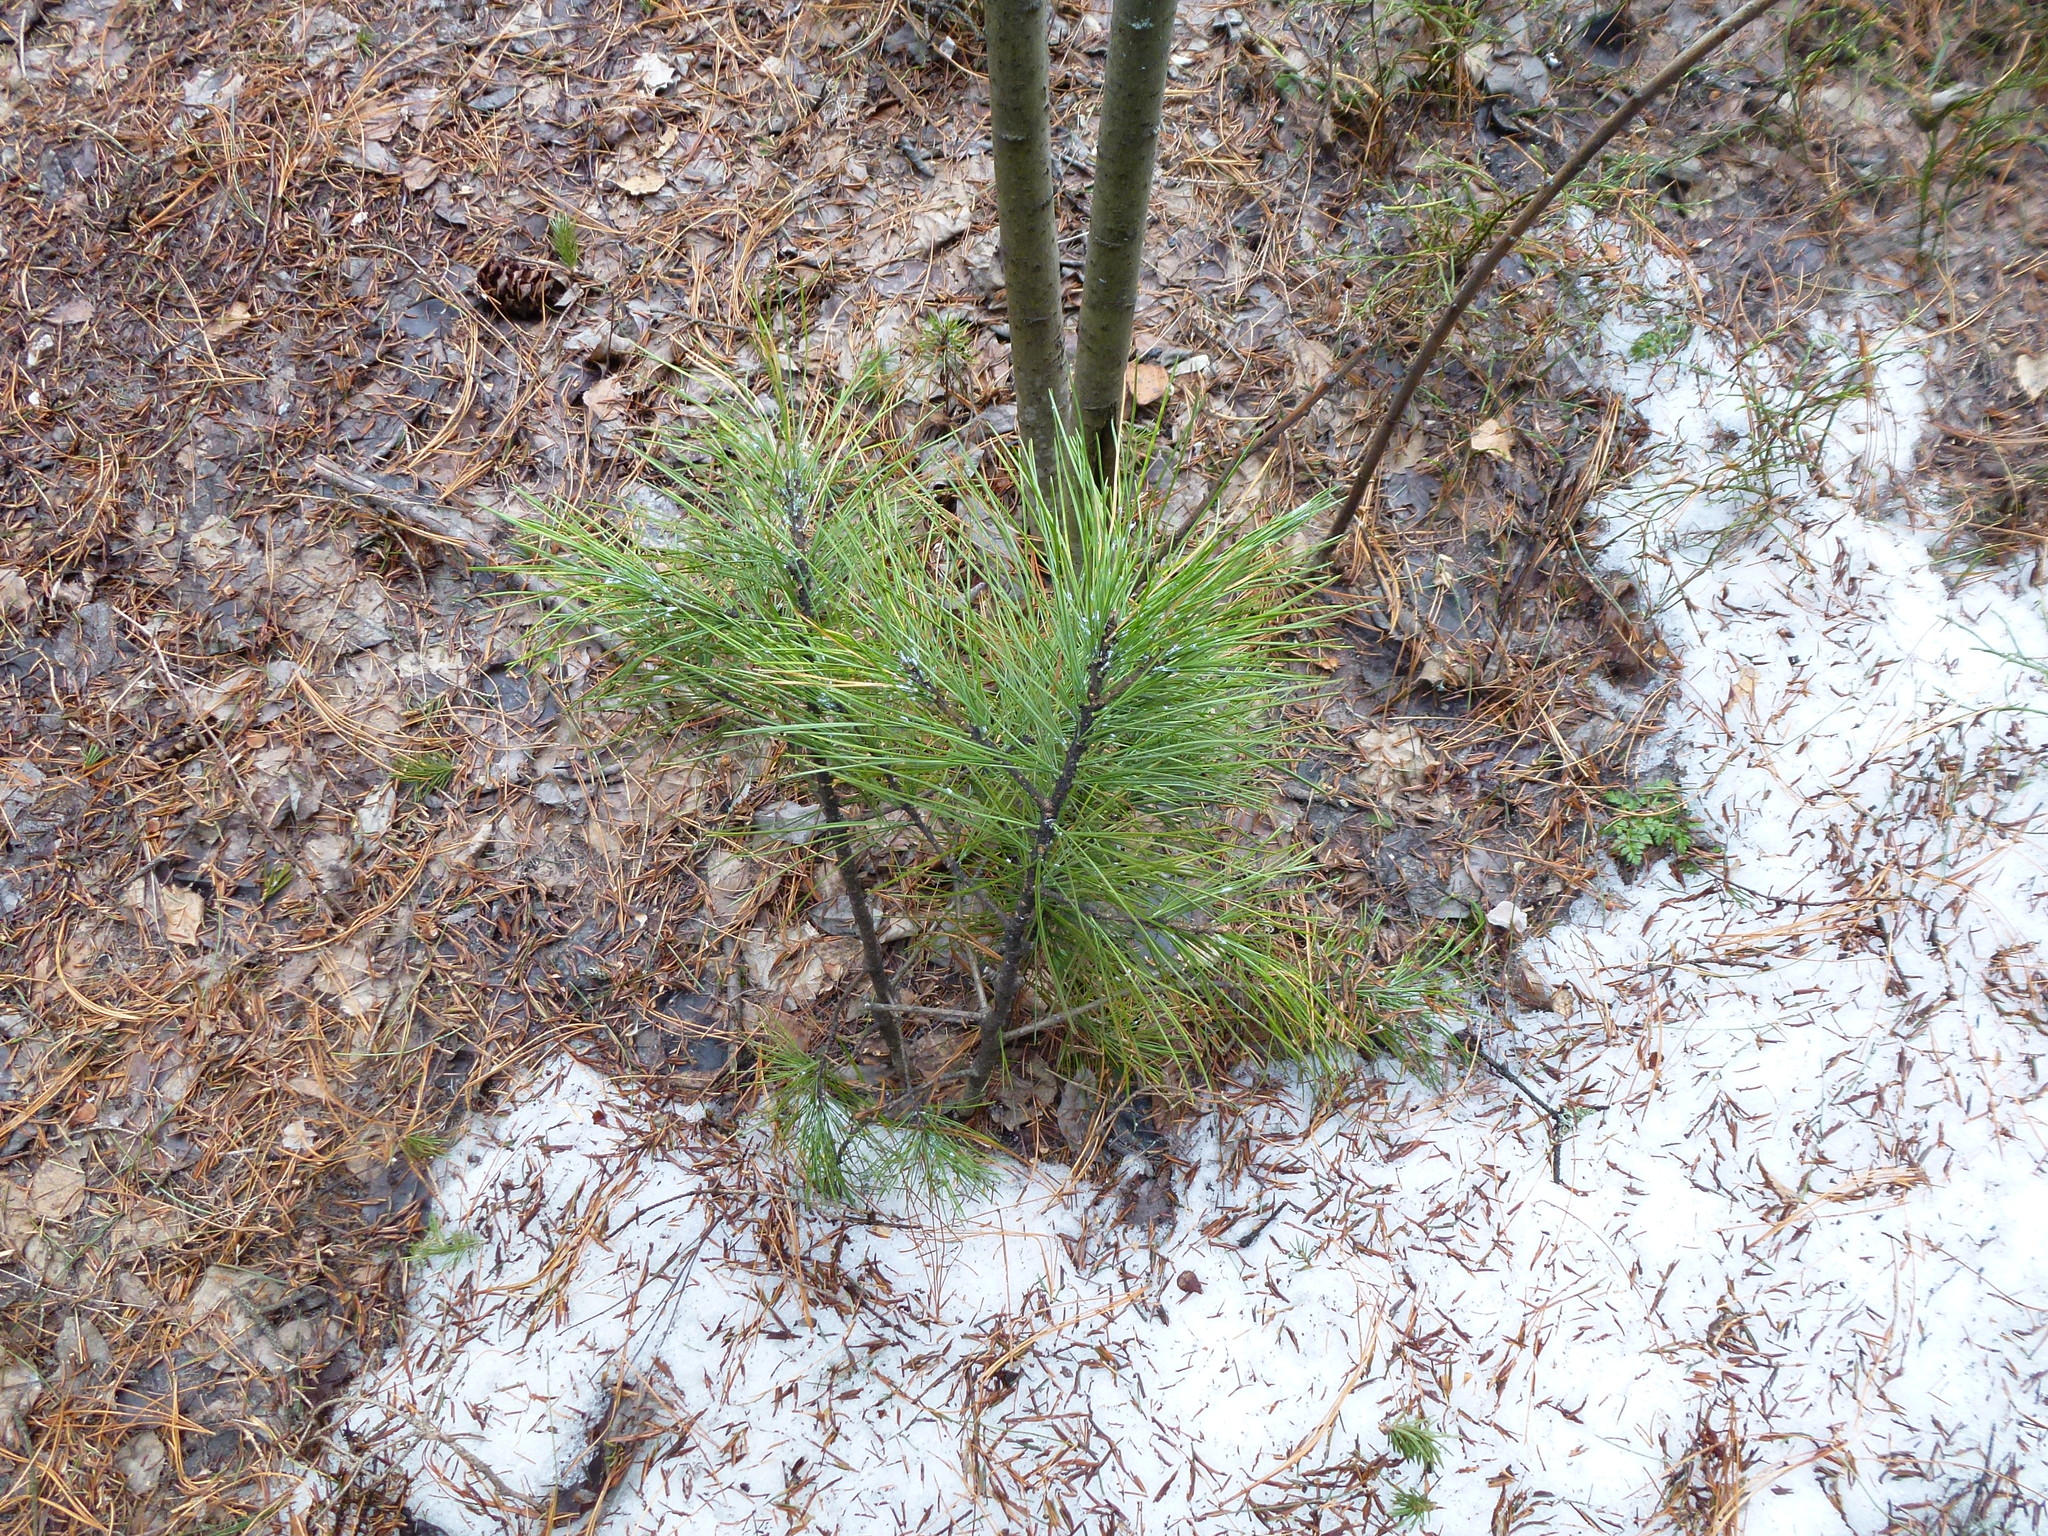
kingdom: Plantae
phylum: Tracheophyta
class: Pinopsida
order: Pinales
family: Pinaceae
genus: Pinus
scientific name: Pinus sibirica
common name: Siberian pine
